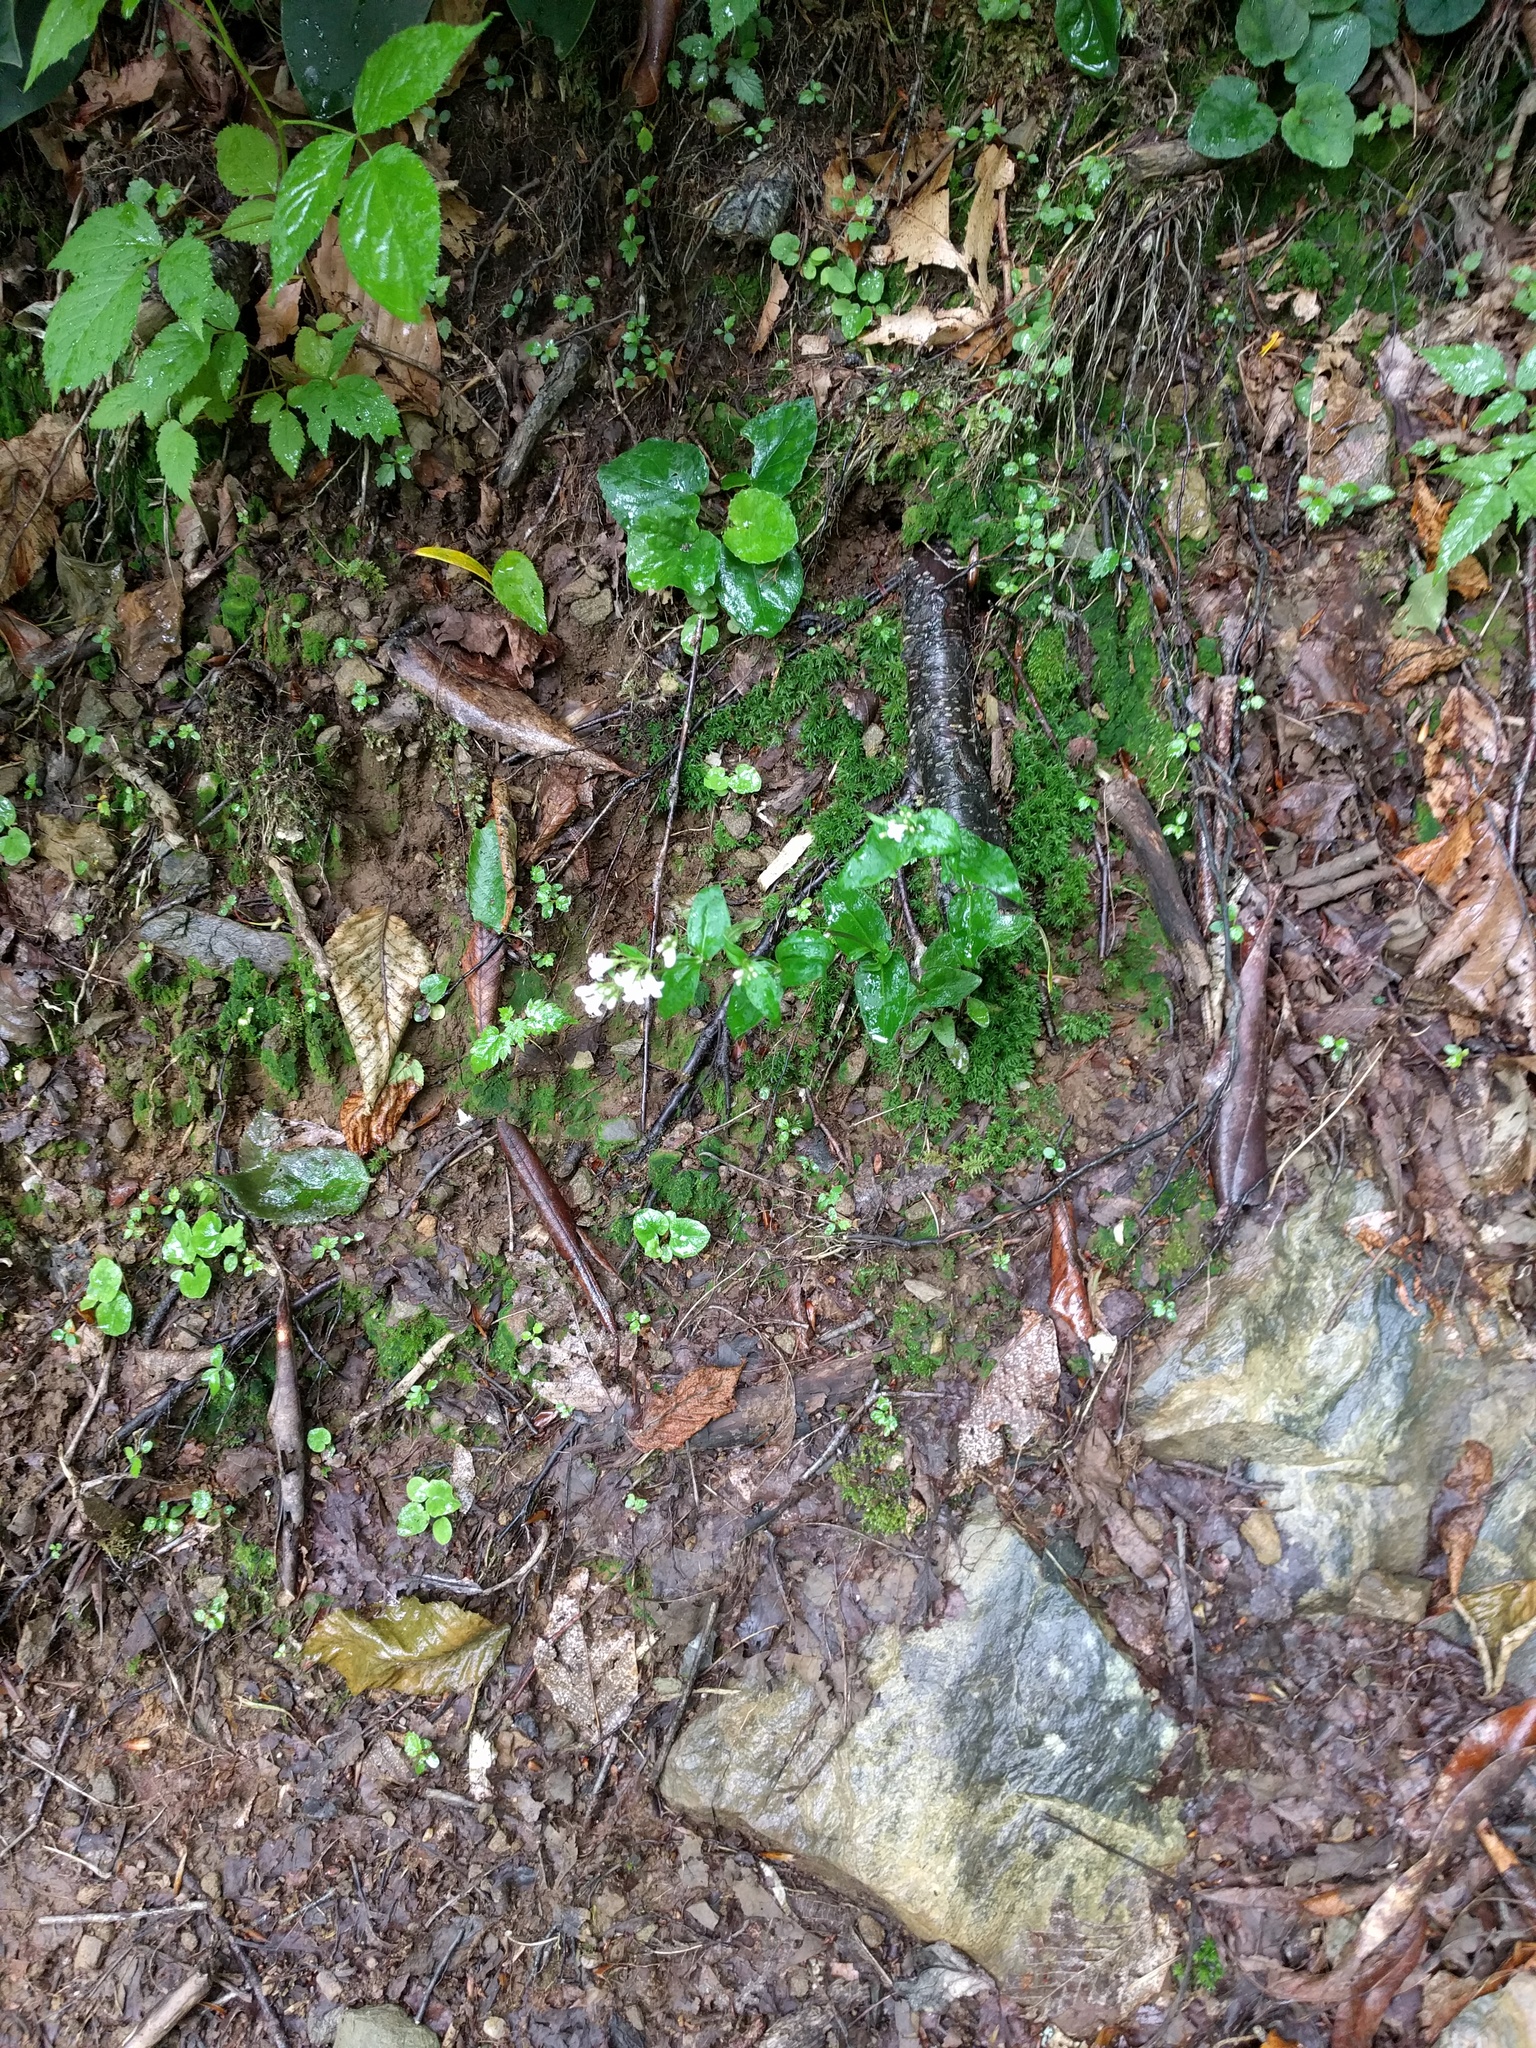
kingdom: Plantae
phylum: Tracheophyta
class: Magnoliopsida
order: Gentianales
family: Rubiaceae
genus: Houstonia
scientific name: Houstonia purpurea
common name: Summer bluet
